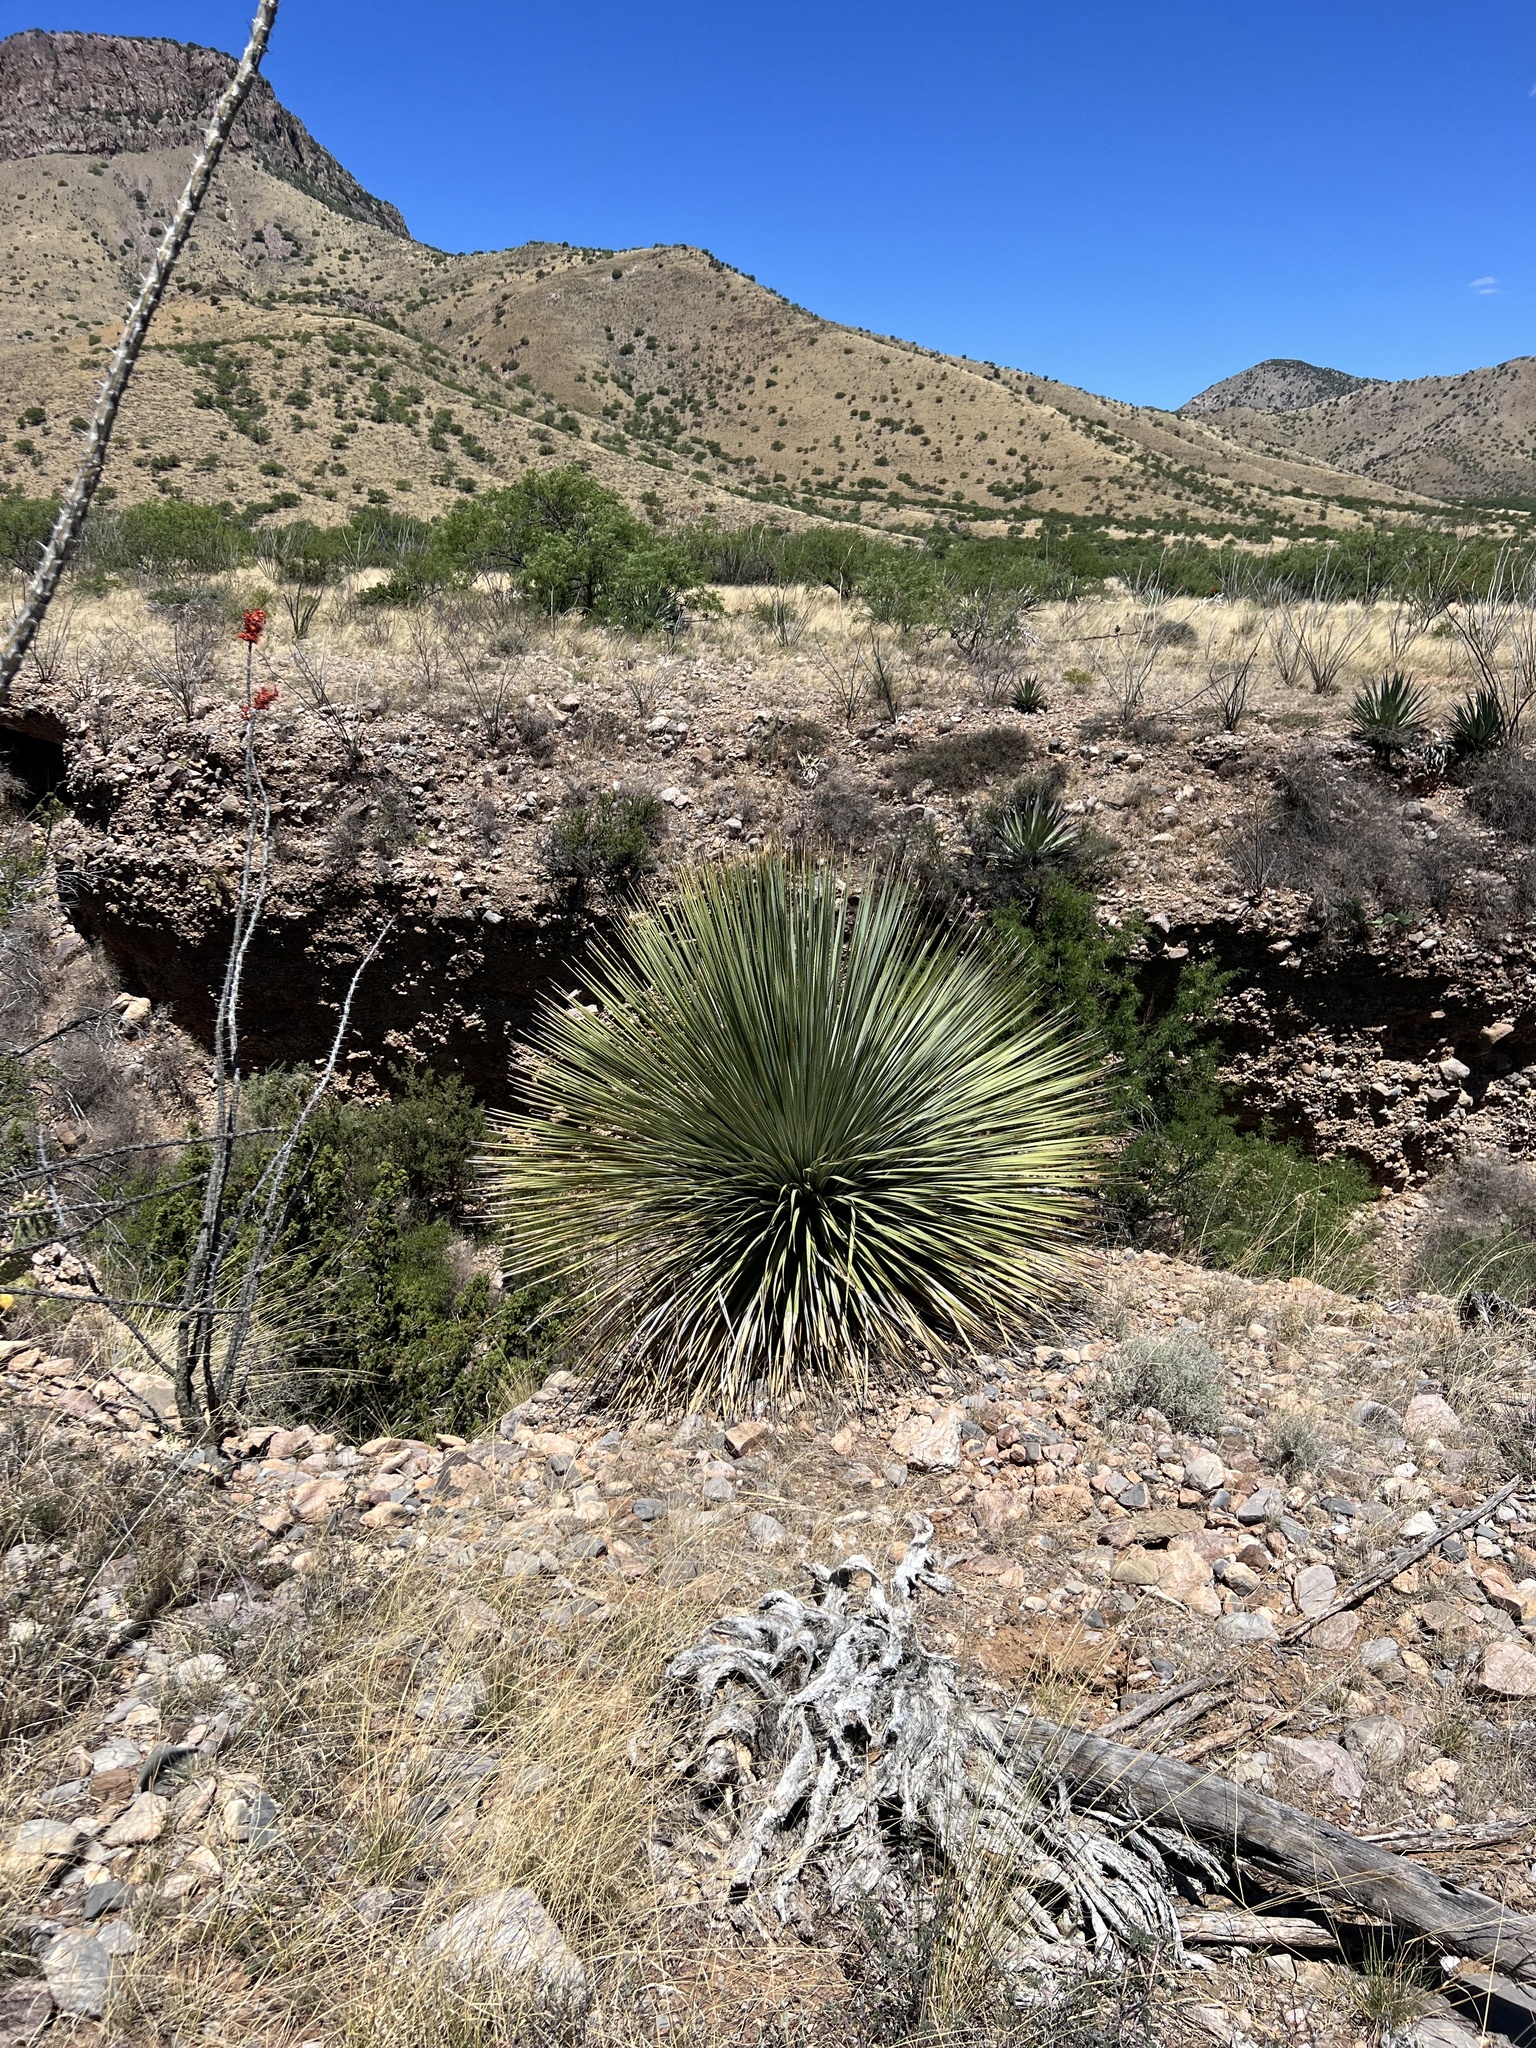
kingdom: Plantae
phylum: Tracheophyta
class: Liliopsida
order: Asparagales
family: Asparagaceae
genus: Dasylirion
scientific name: Dasylirion wheeleri
